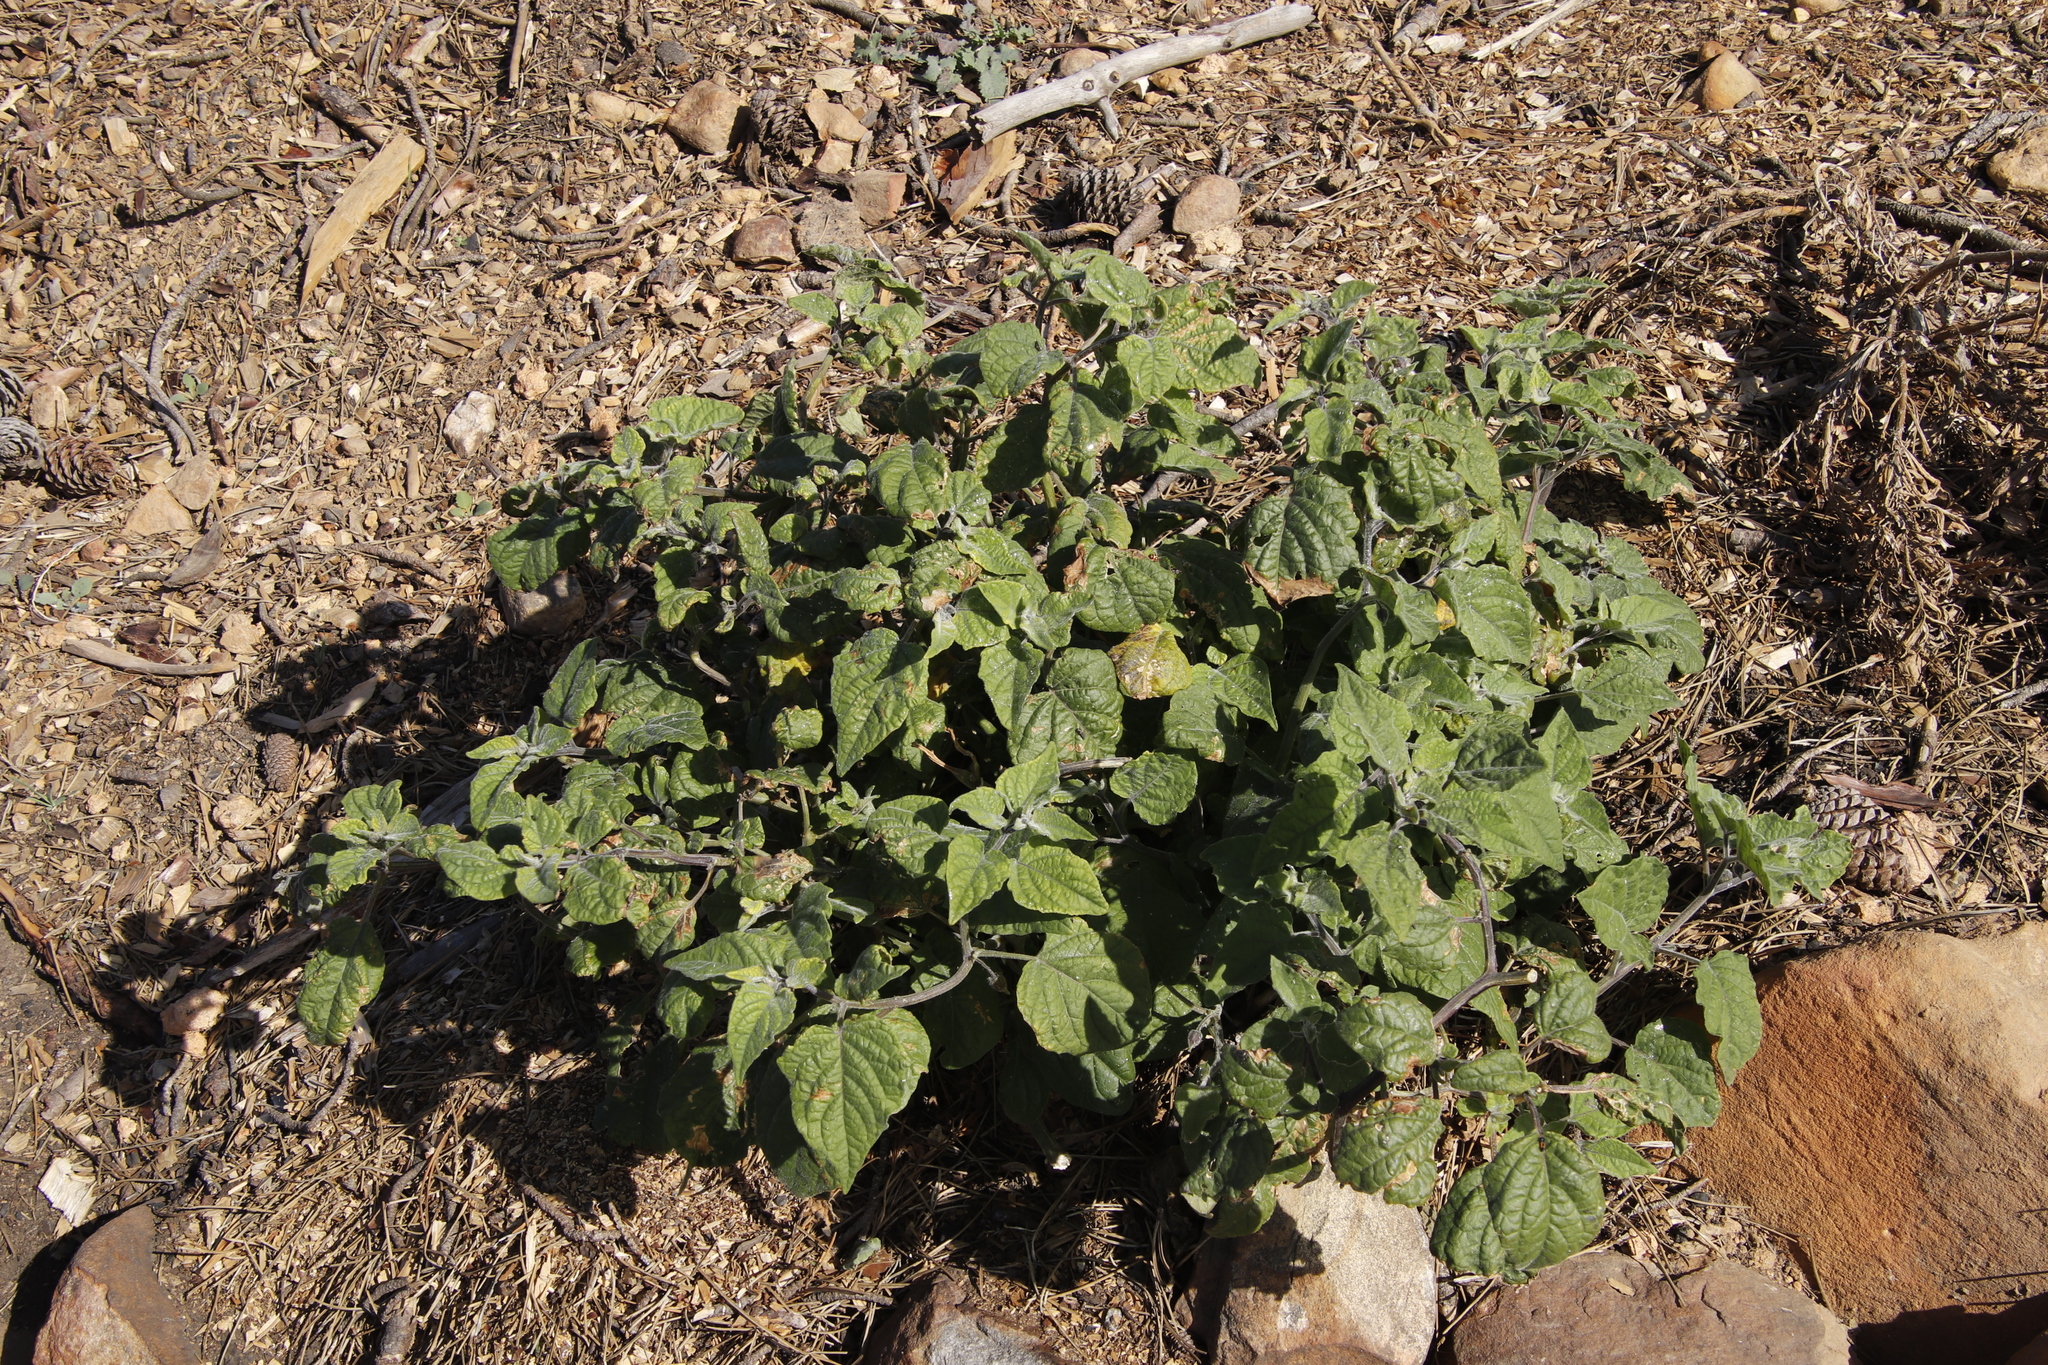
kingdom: Plantae
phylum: Tracheophyta
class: Magnoliopsida
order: Solanales
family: Solanaceae
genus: Physalis
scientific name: Physalis peruviana
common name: Cape-gooseberry
